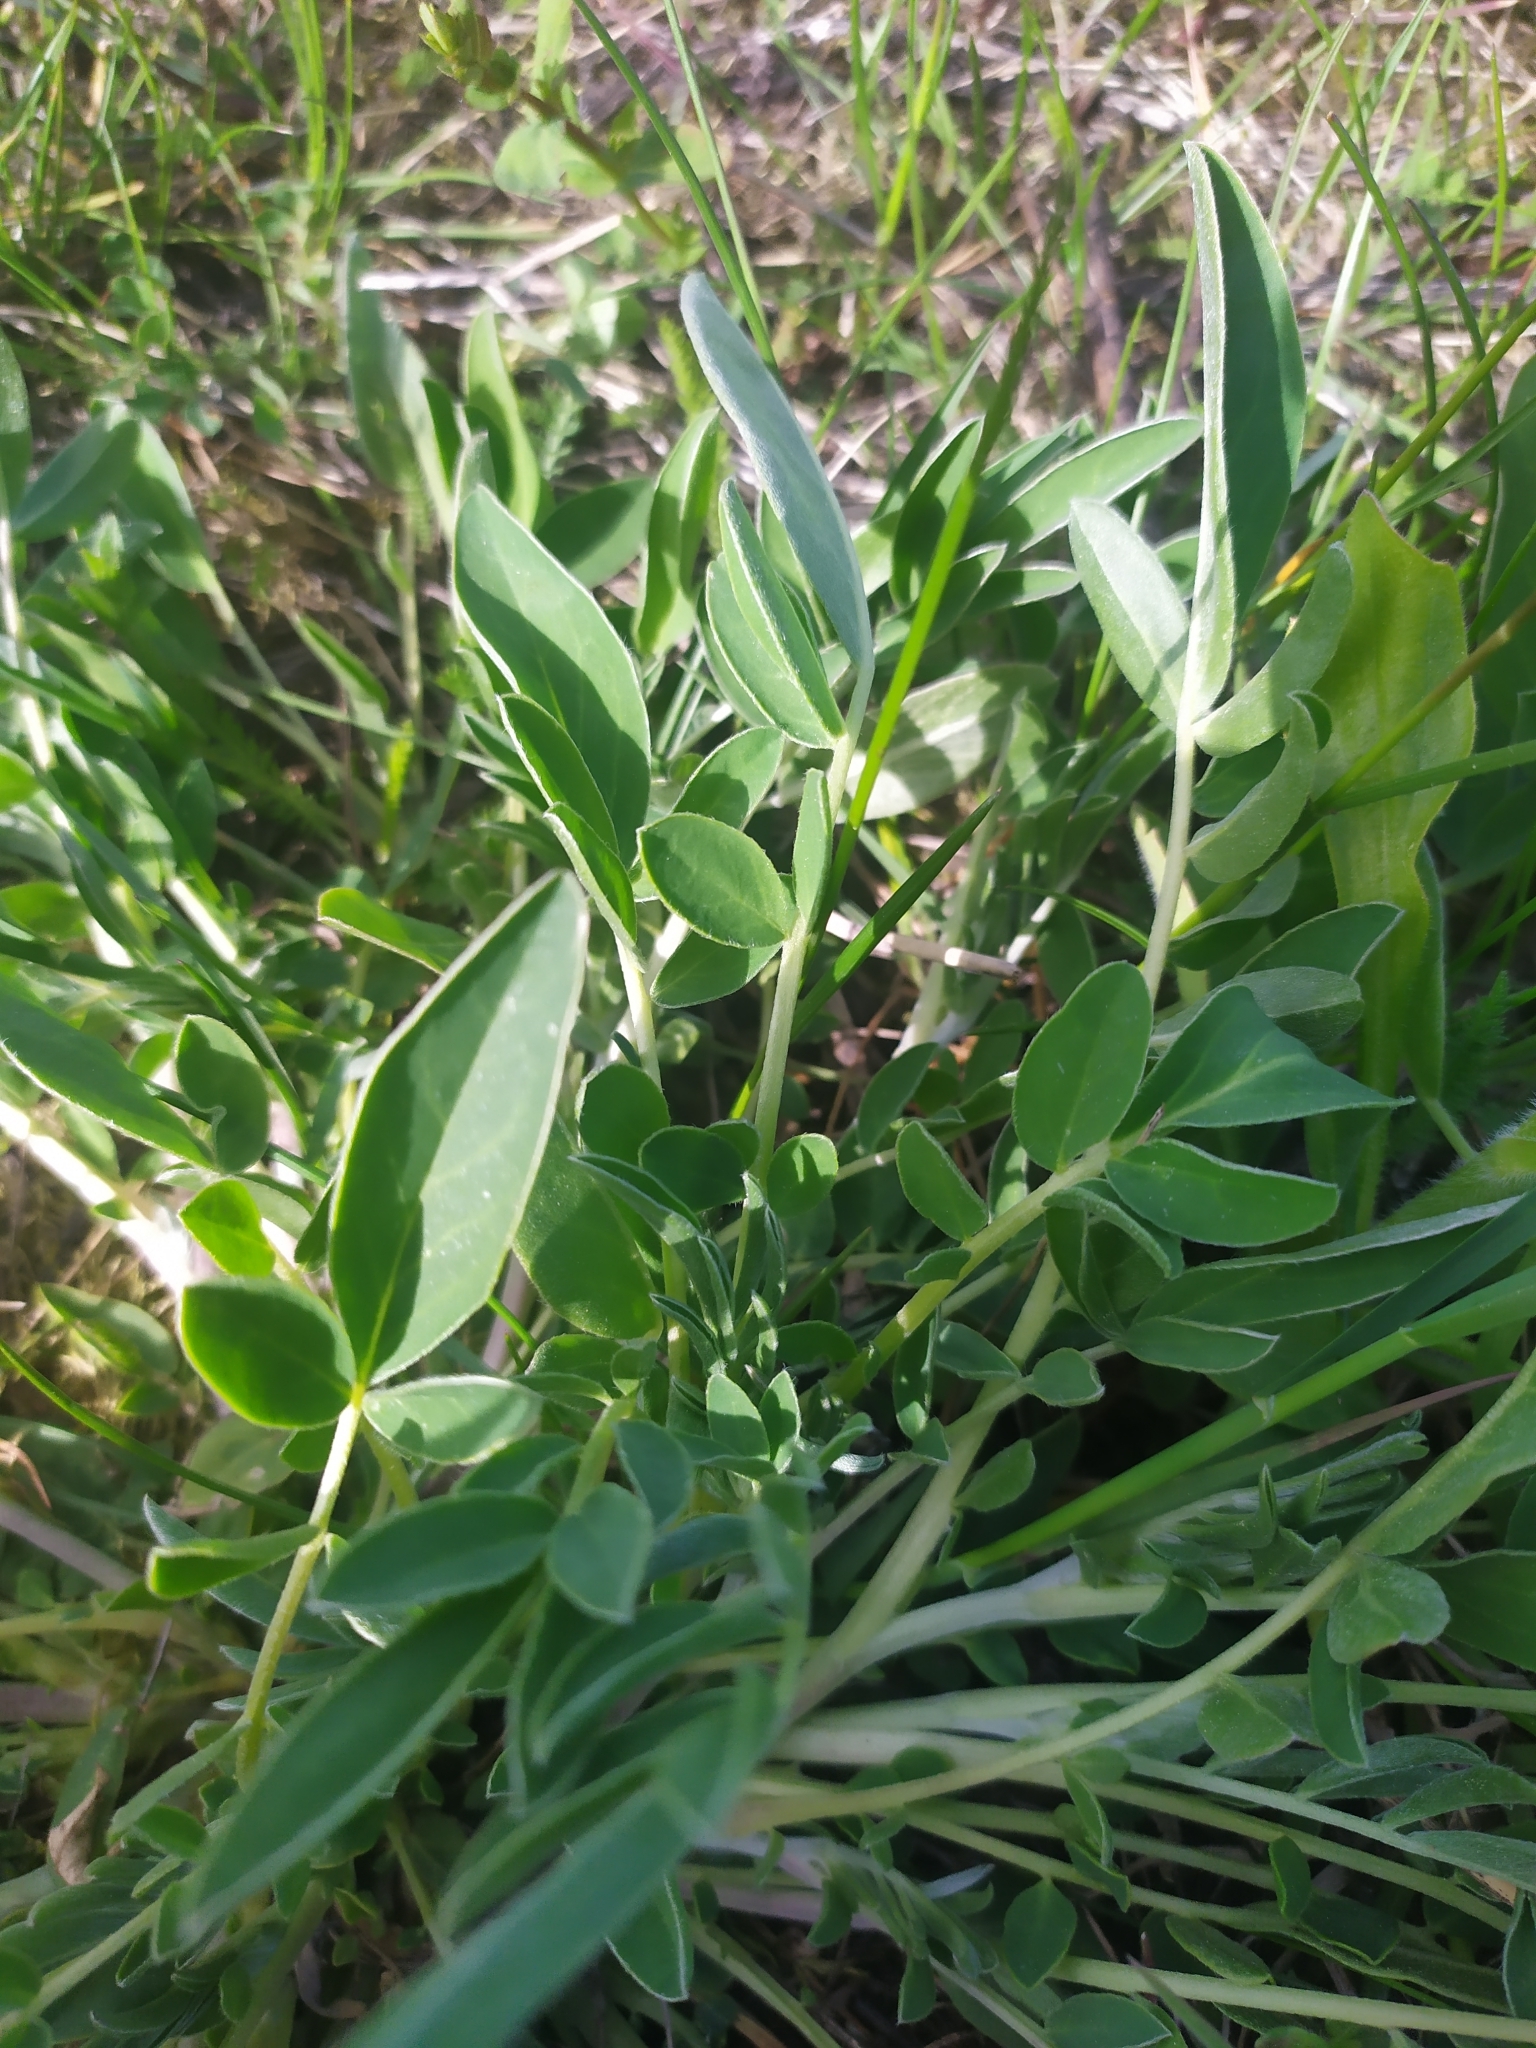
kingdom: Plantae
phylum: Tracheophyta
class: Magnoliopsida
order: Fabales
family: Fabaceae
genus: Anthyllis
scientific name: Anthyllis vulneraria
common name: Kidney vetch
